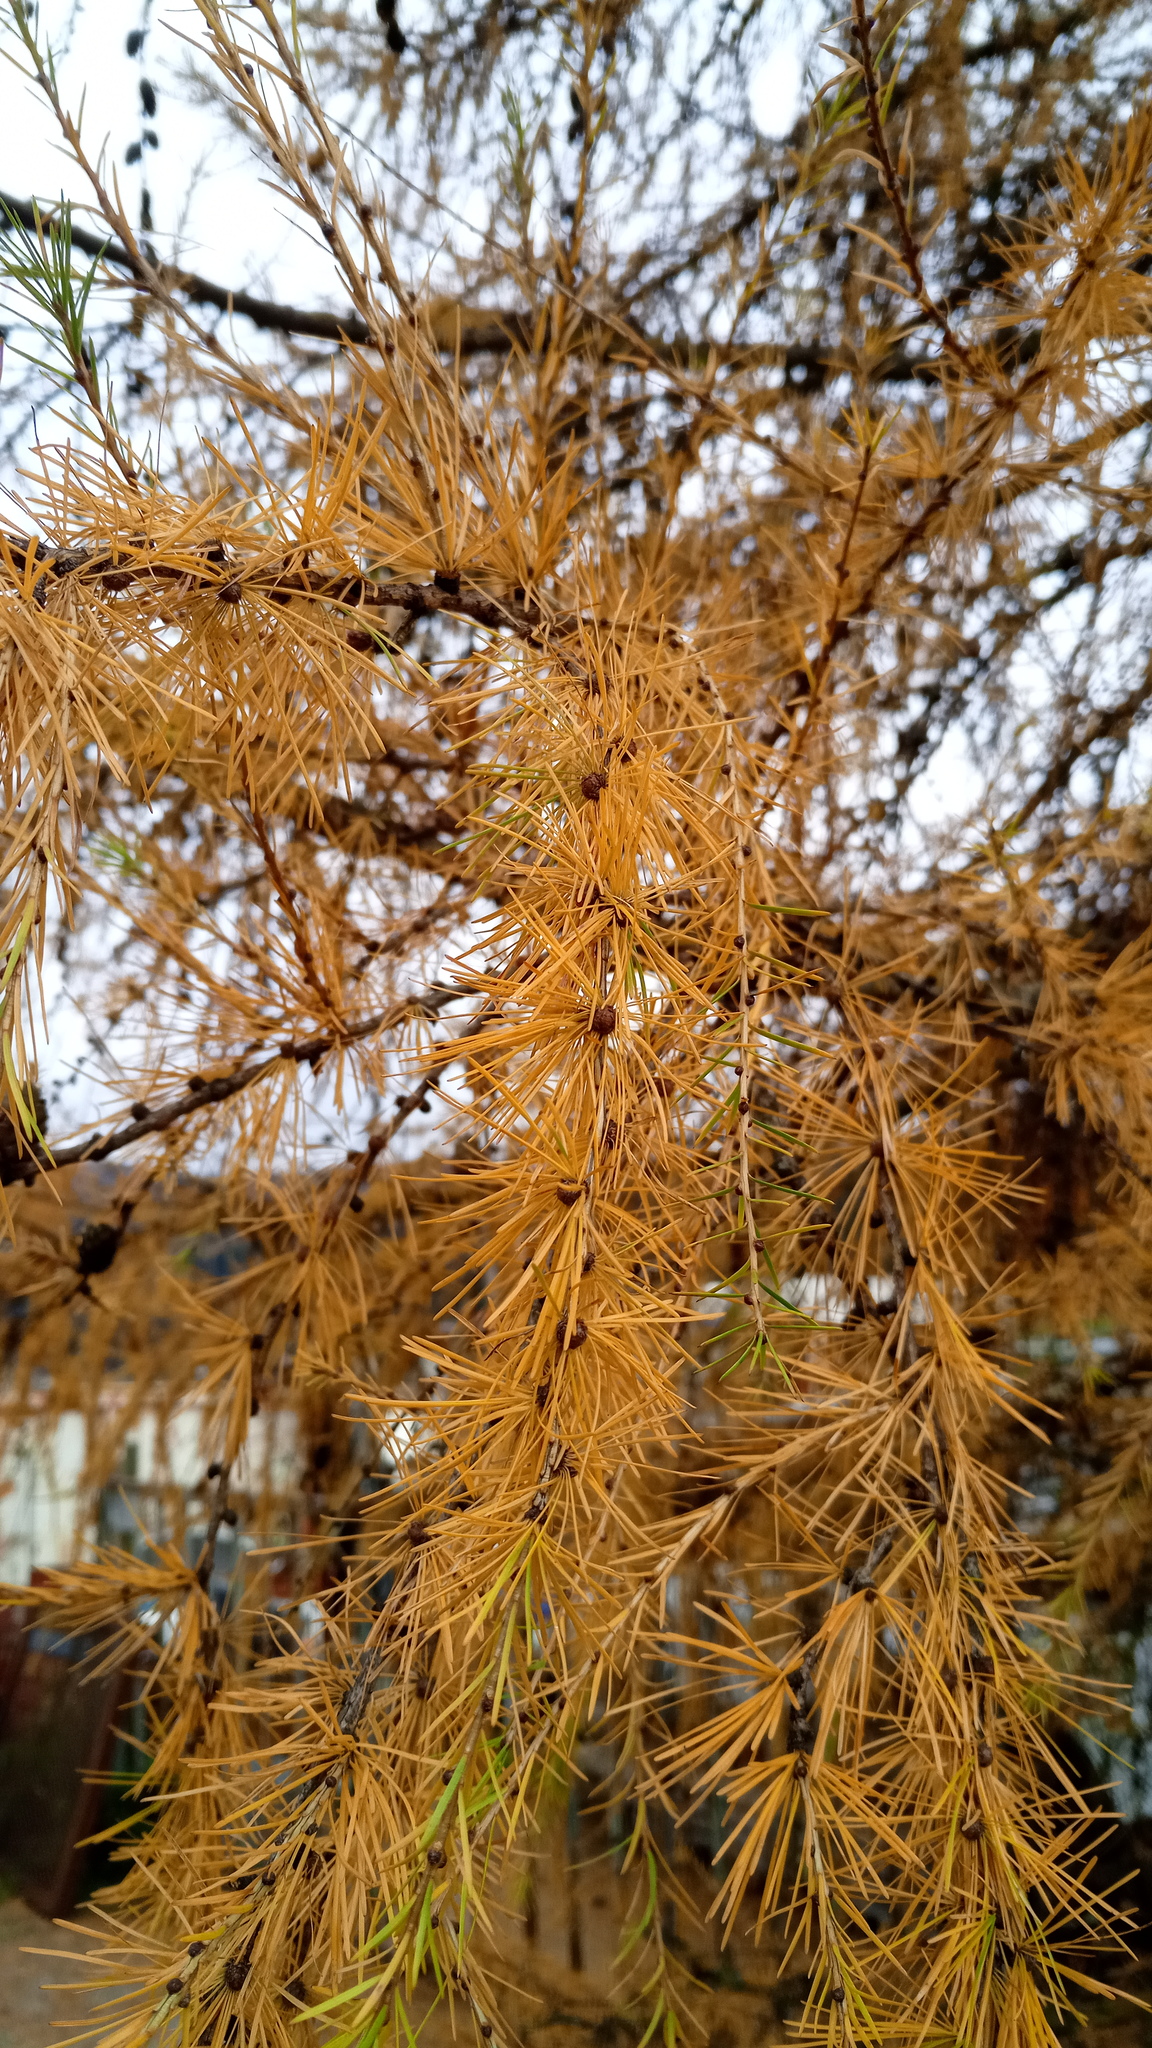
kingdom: Plantae
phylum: Tracheophyta
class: Pinopsida
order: Pinales
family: Pinaceae
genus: Larix
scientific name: Larix decidua
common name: European larch
